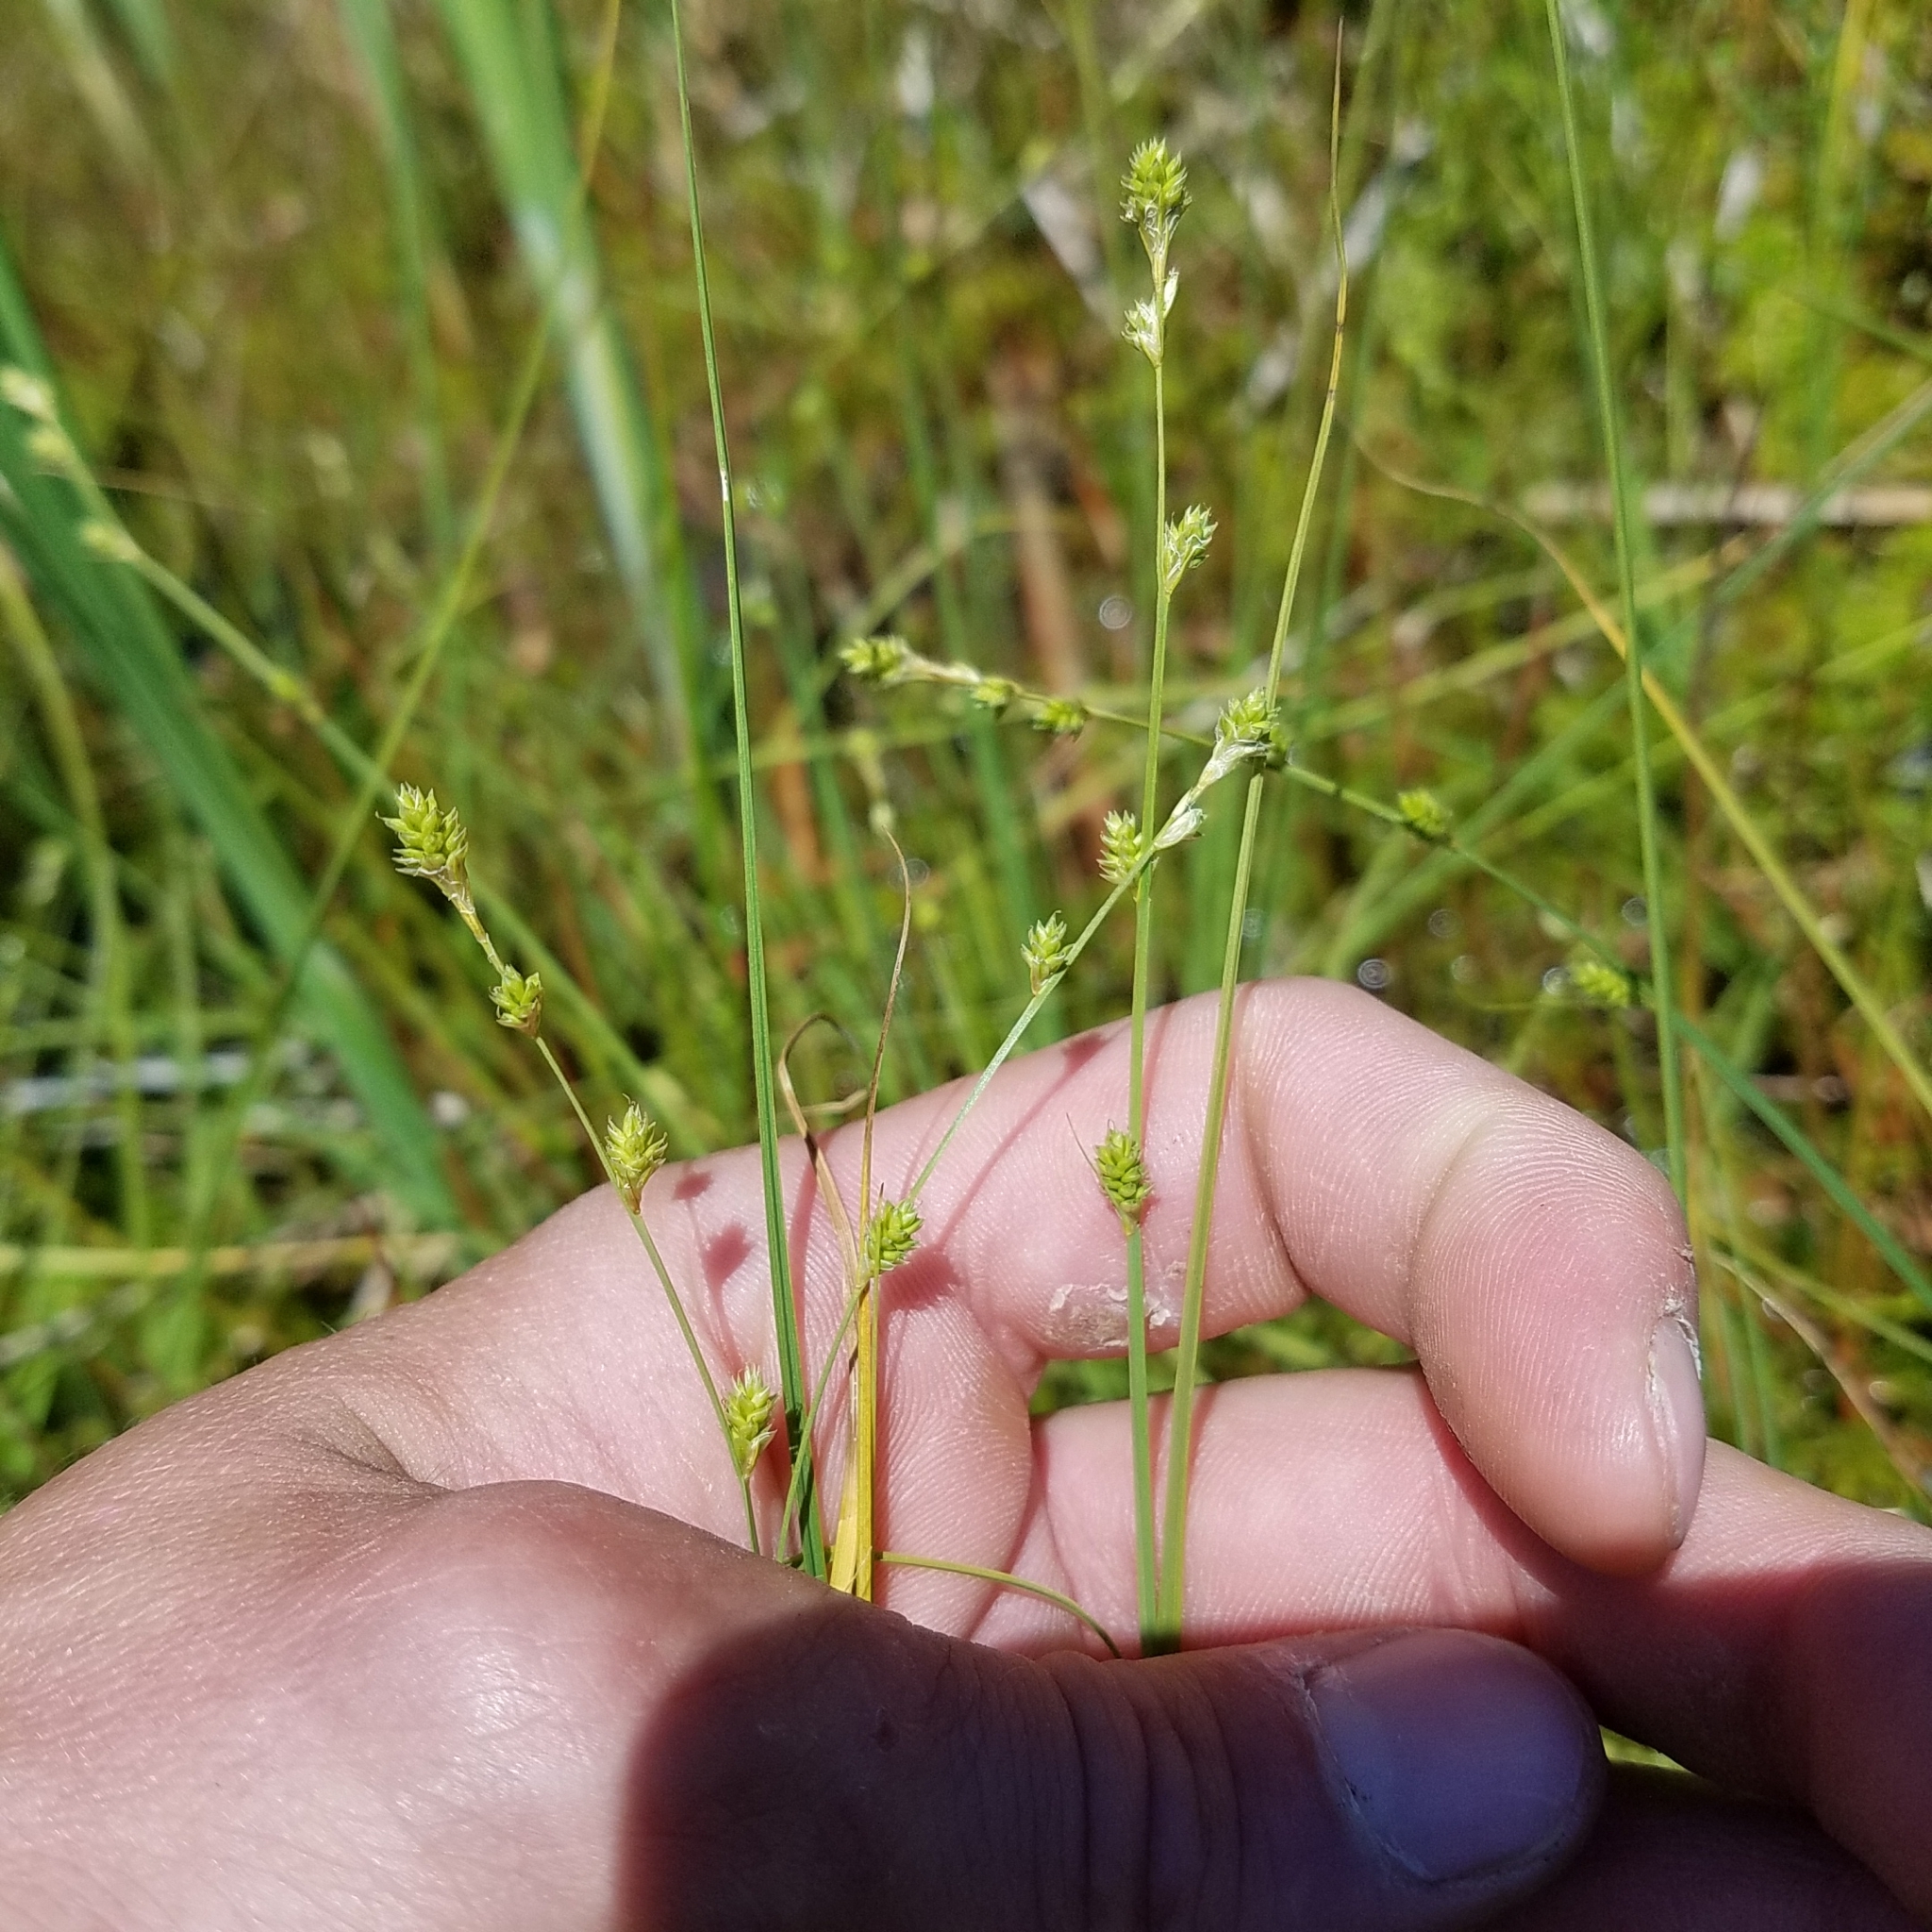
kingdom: Plantae
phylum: Tracheophyta
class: Liliopsida
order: Poales
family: Cyperaceae
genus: Carex
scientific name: Carex canescens
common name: White sedge
